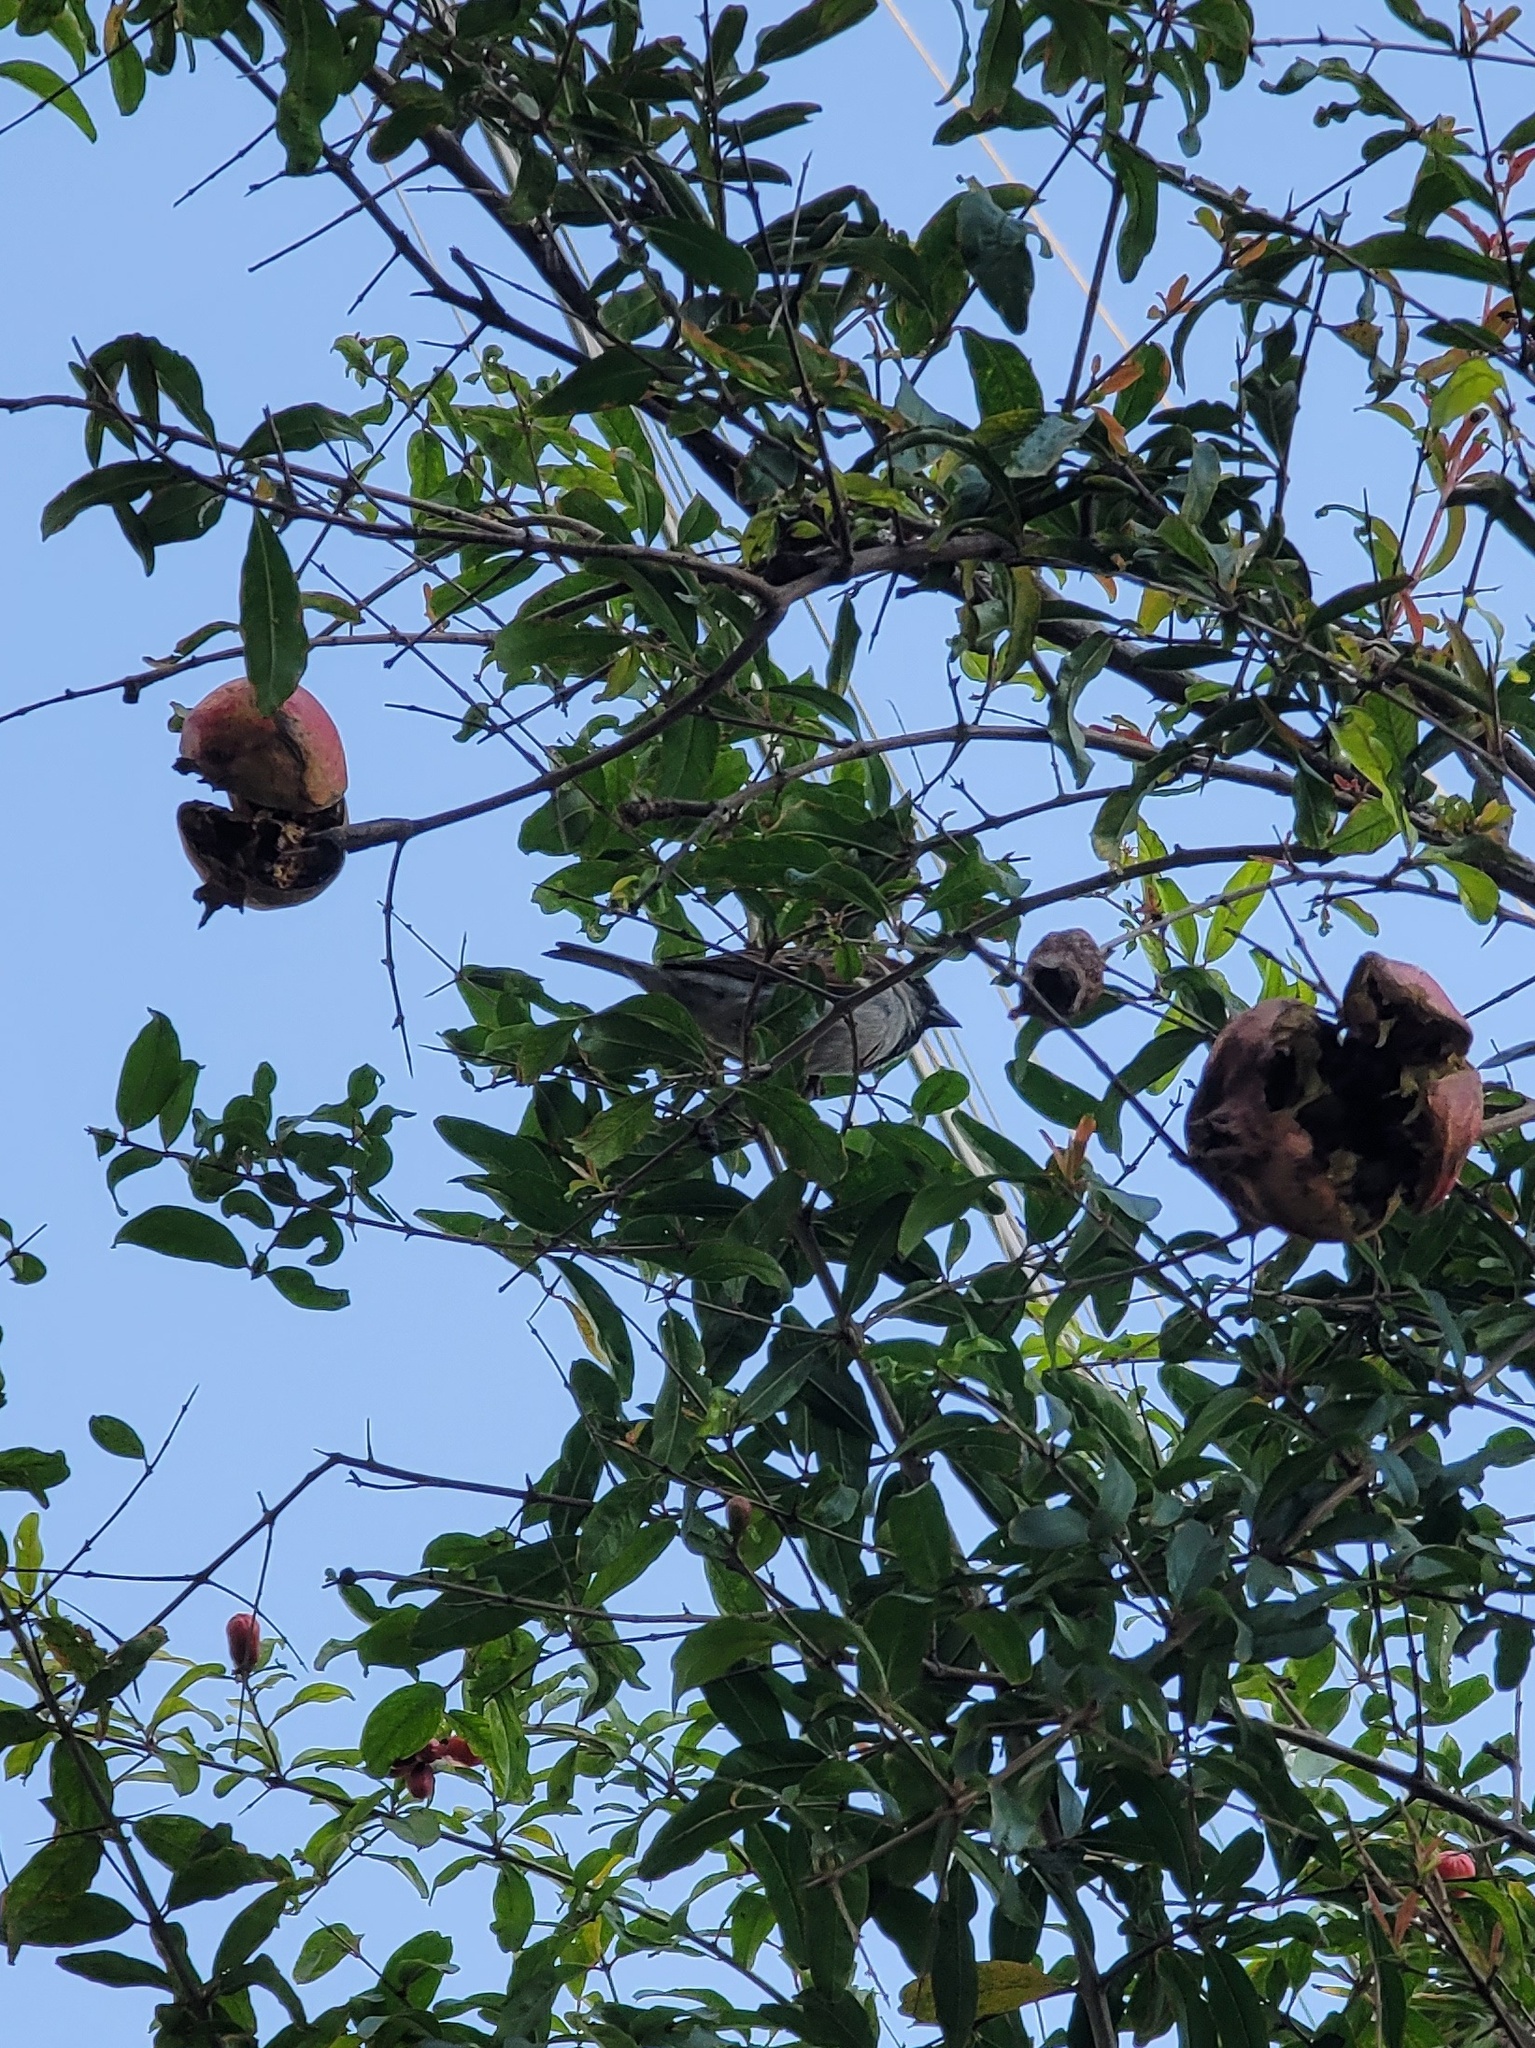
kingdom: Animalia
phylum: Chordata
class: Aves
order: Passeriformes
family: Passeridae
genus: Passer
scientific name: Passer domesticus
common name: House sparrow
